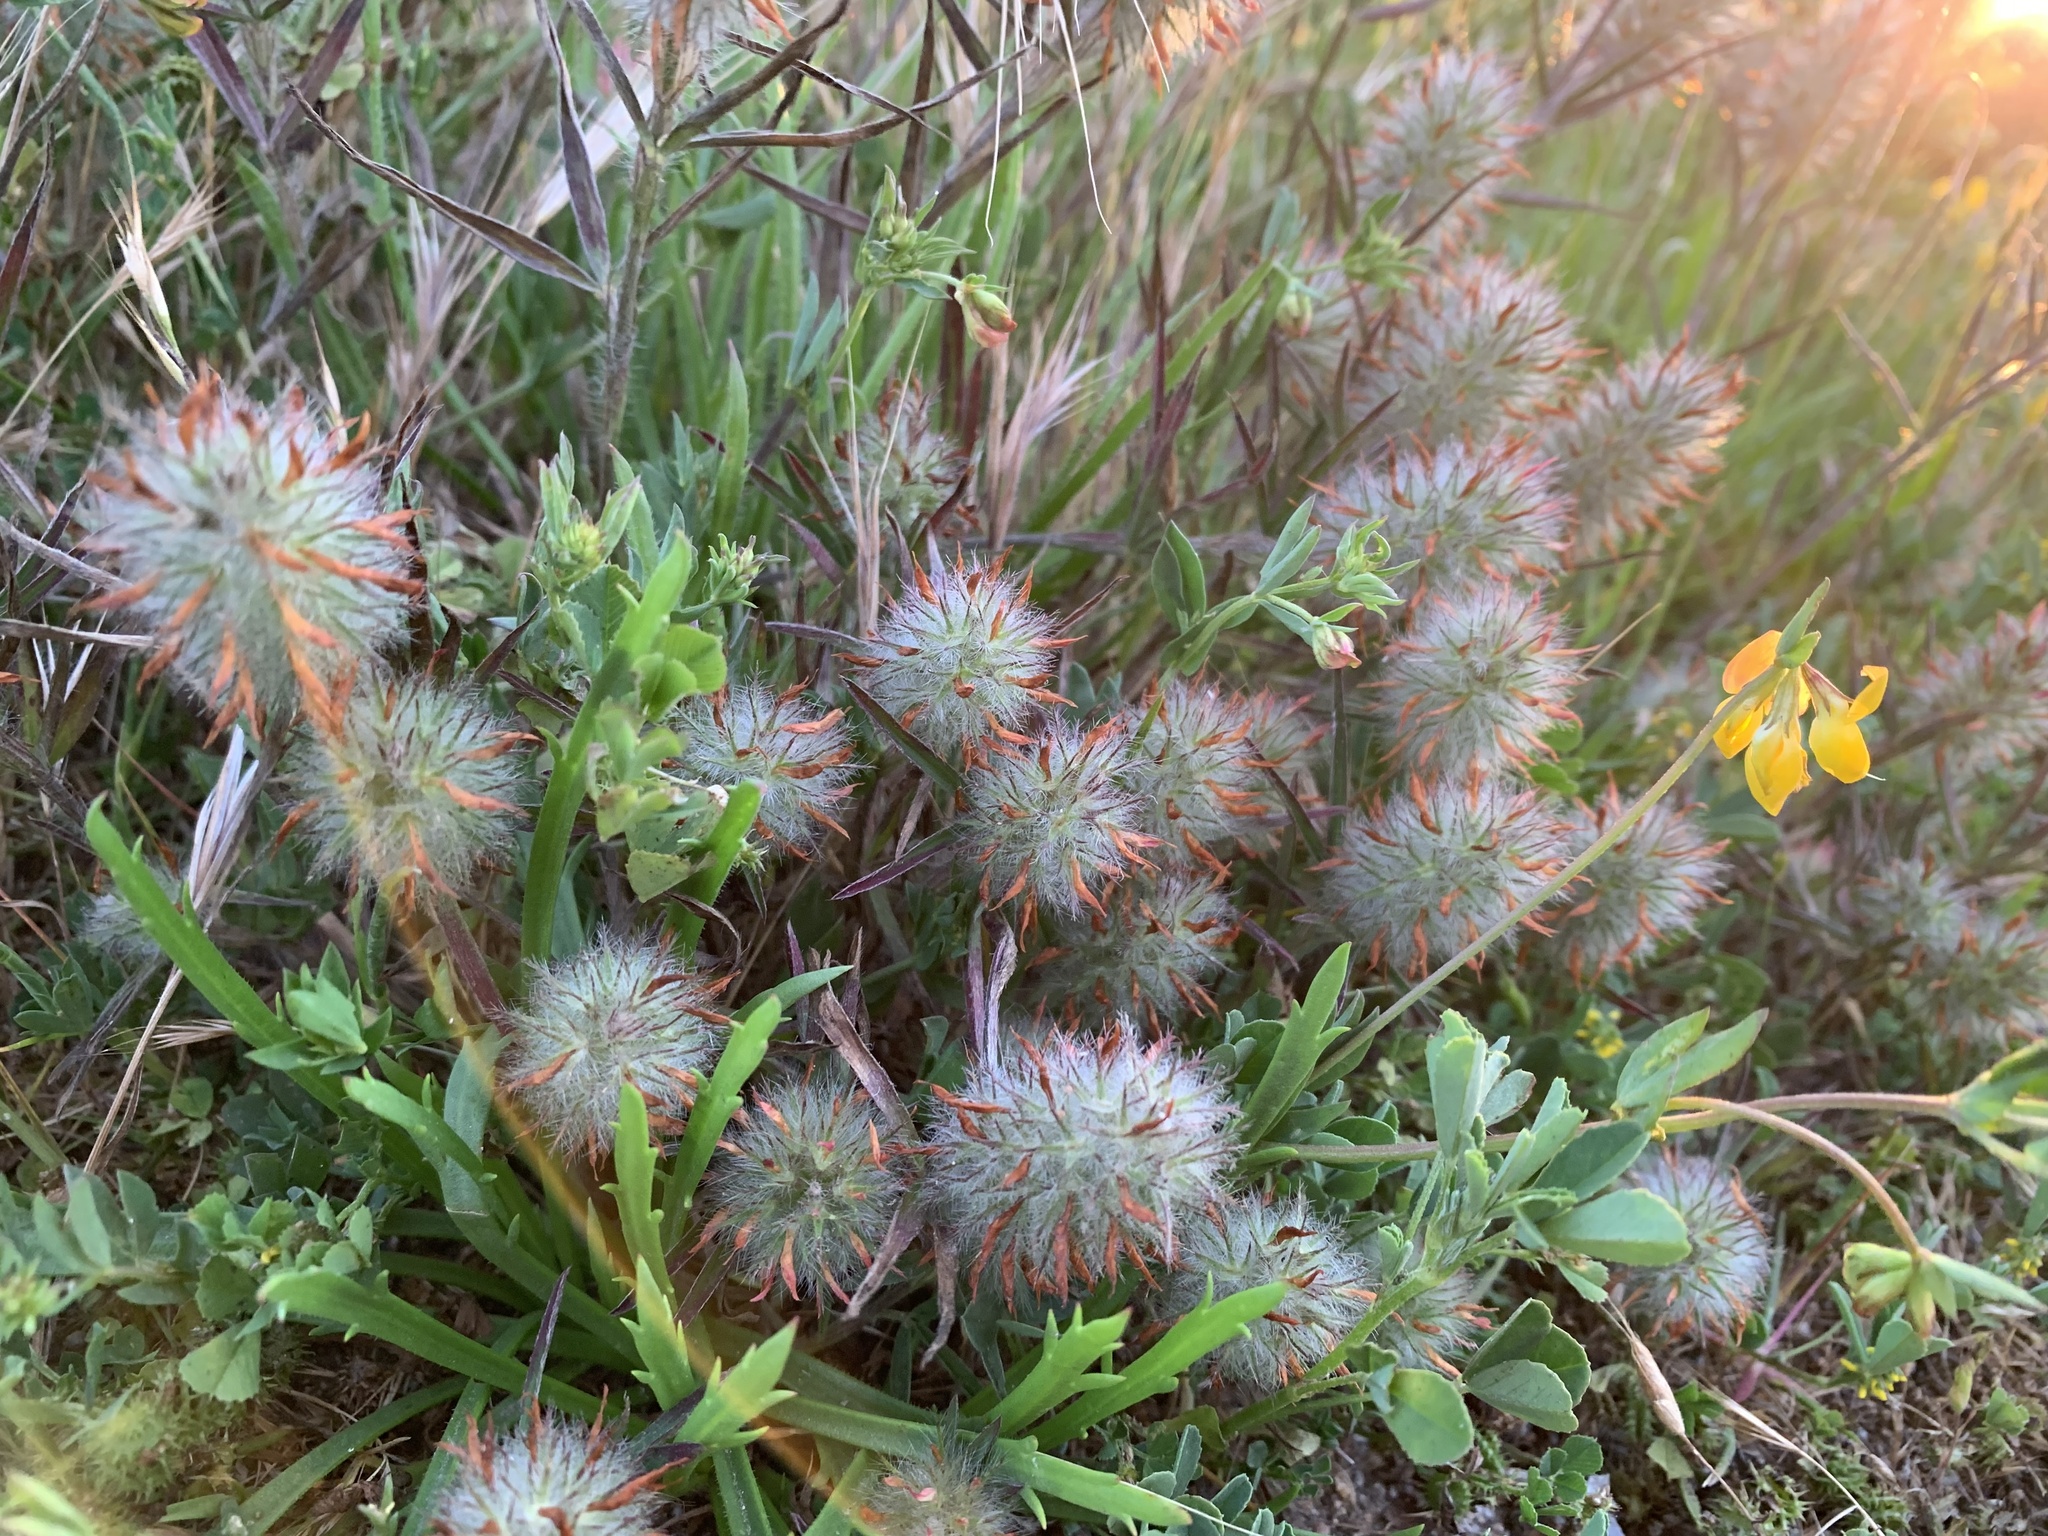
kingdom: Plantae
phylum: Tracheophyta
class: Magnoliopsida
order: Fabales
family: Fabaceae
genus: Trifolium
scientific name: Trifolium angustifolium
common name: Narrow clover
